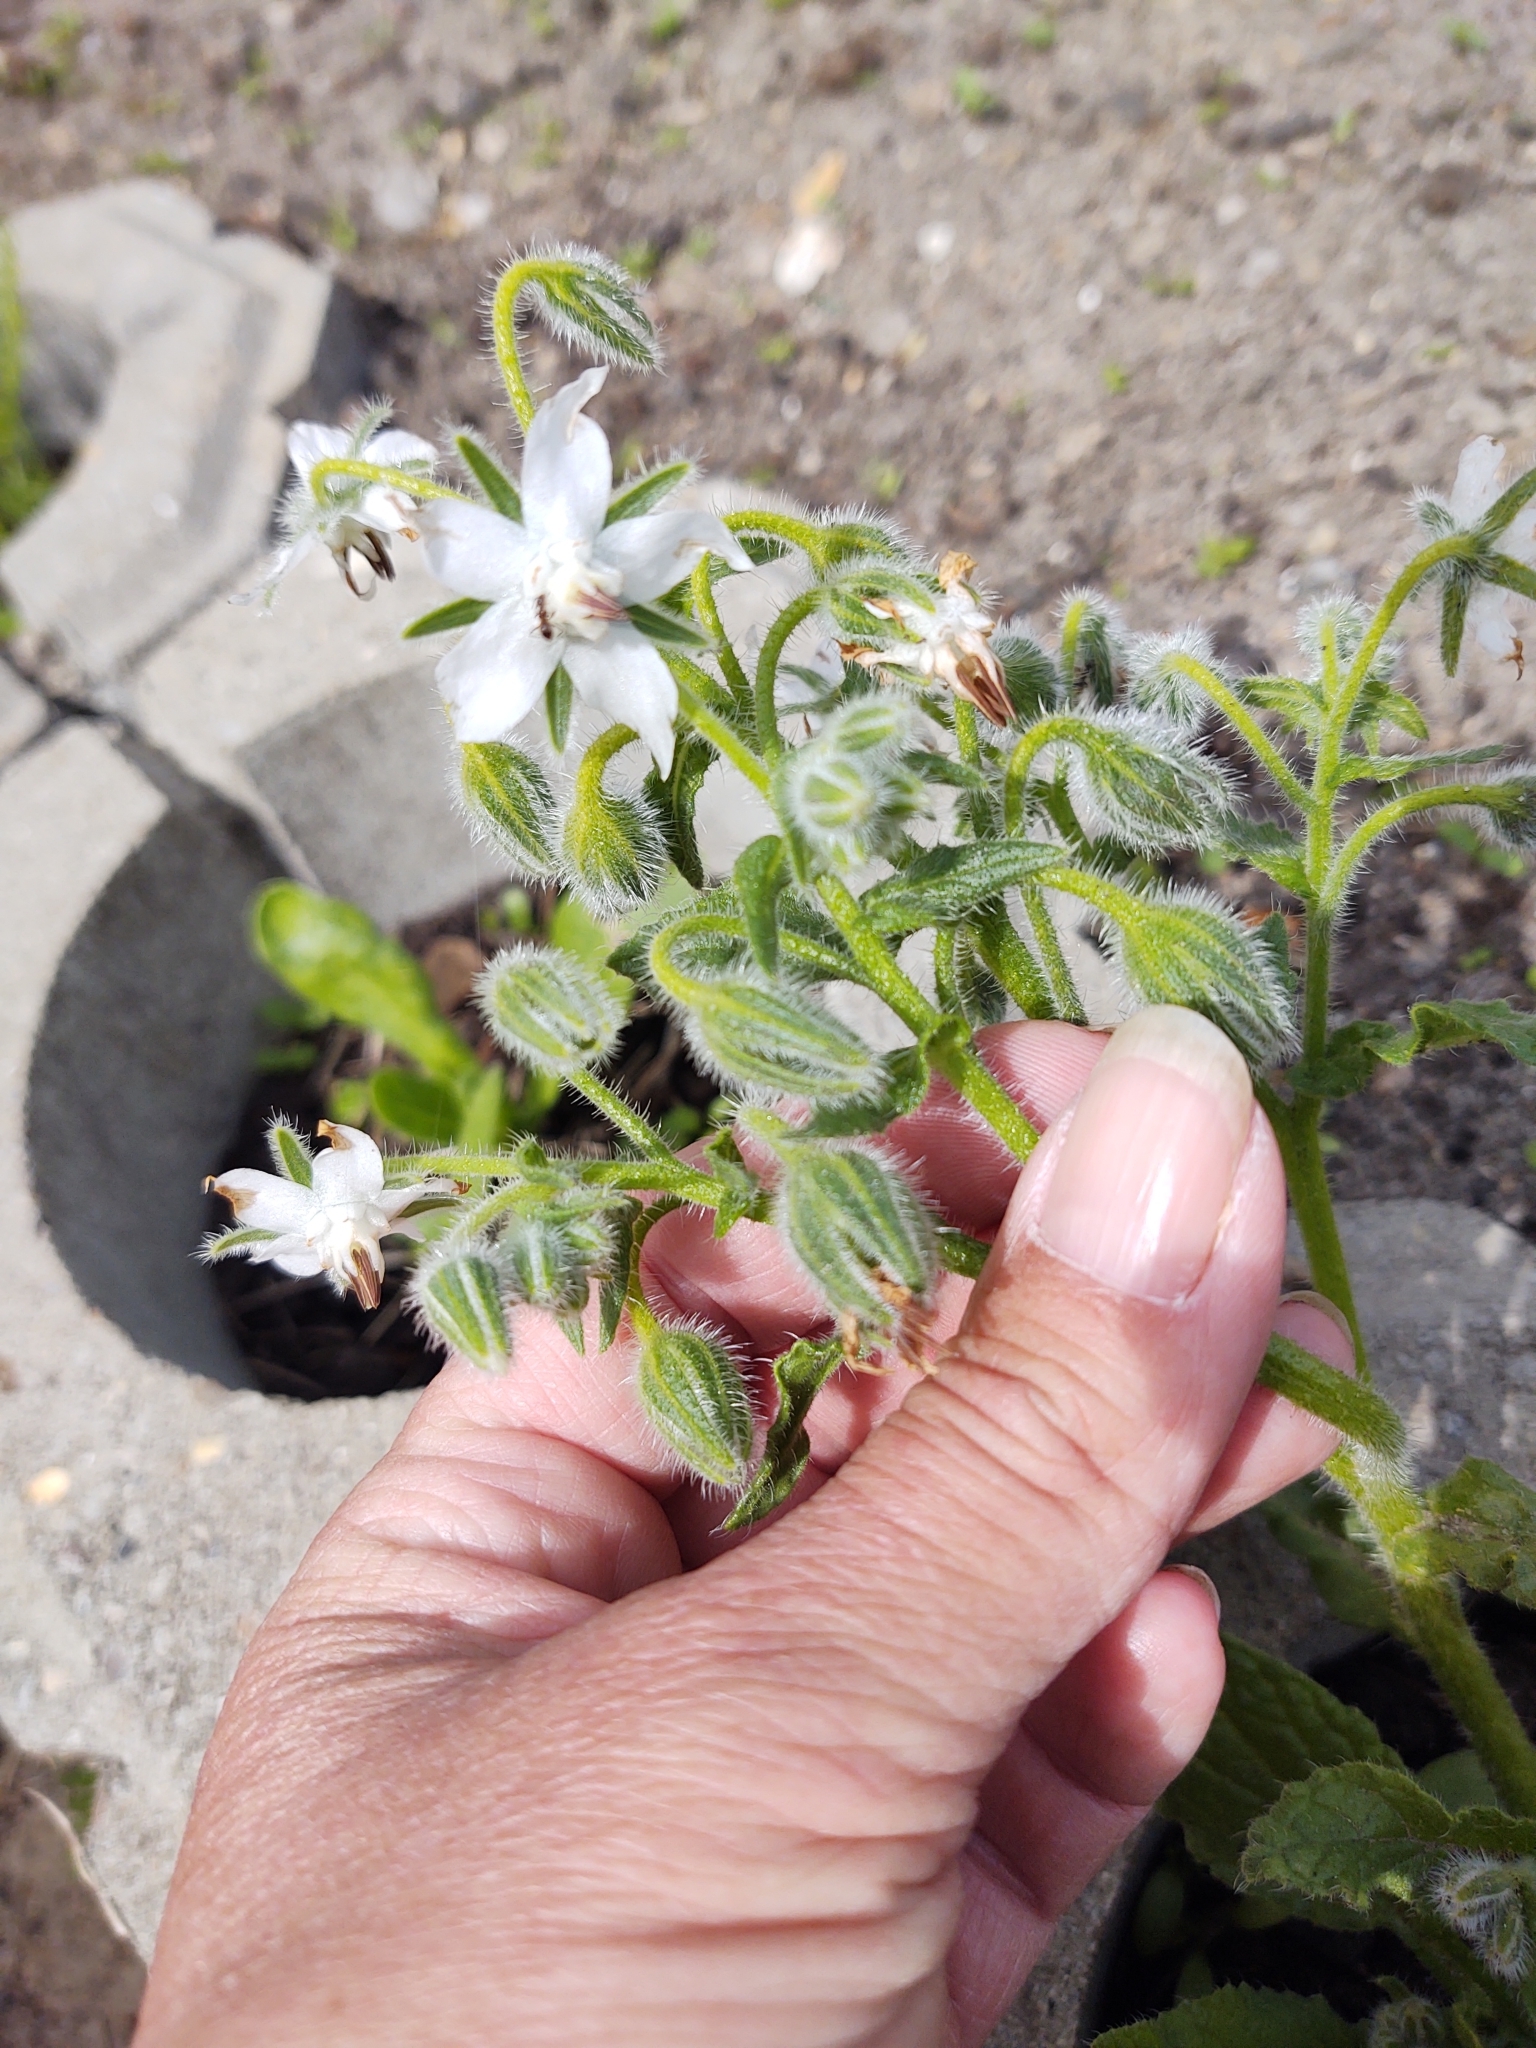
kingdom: Plantae
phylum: Tracheophyta
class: Magnoliopsida
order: Boraginales
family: Boraginaceae
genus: Borago
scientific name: Borago officinalis
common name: Borage
